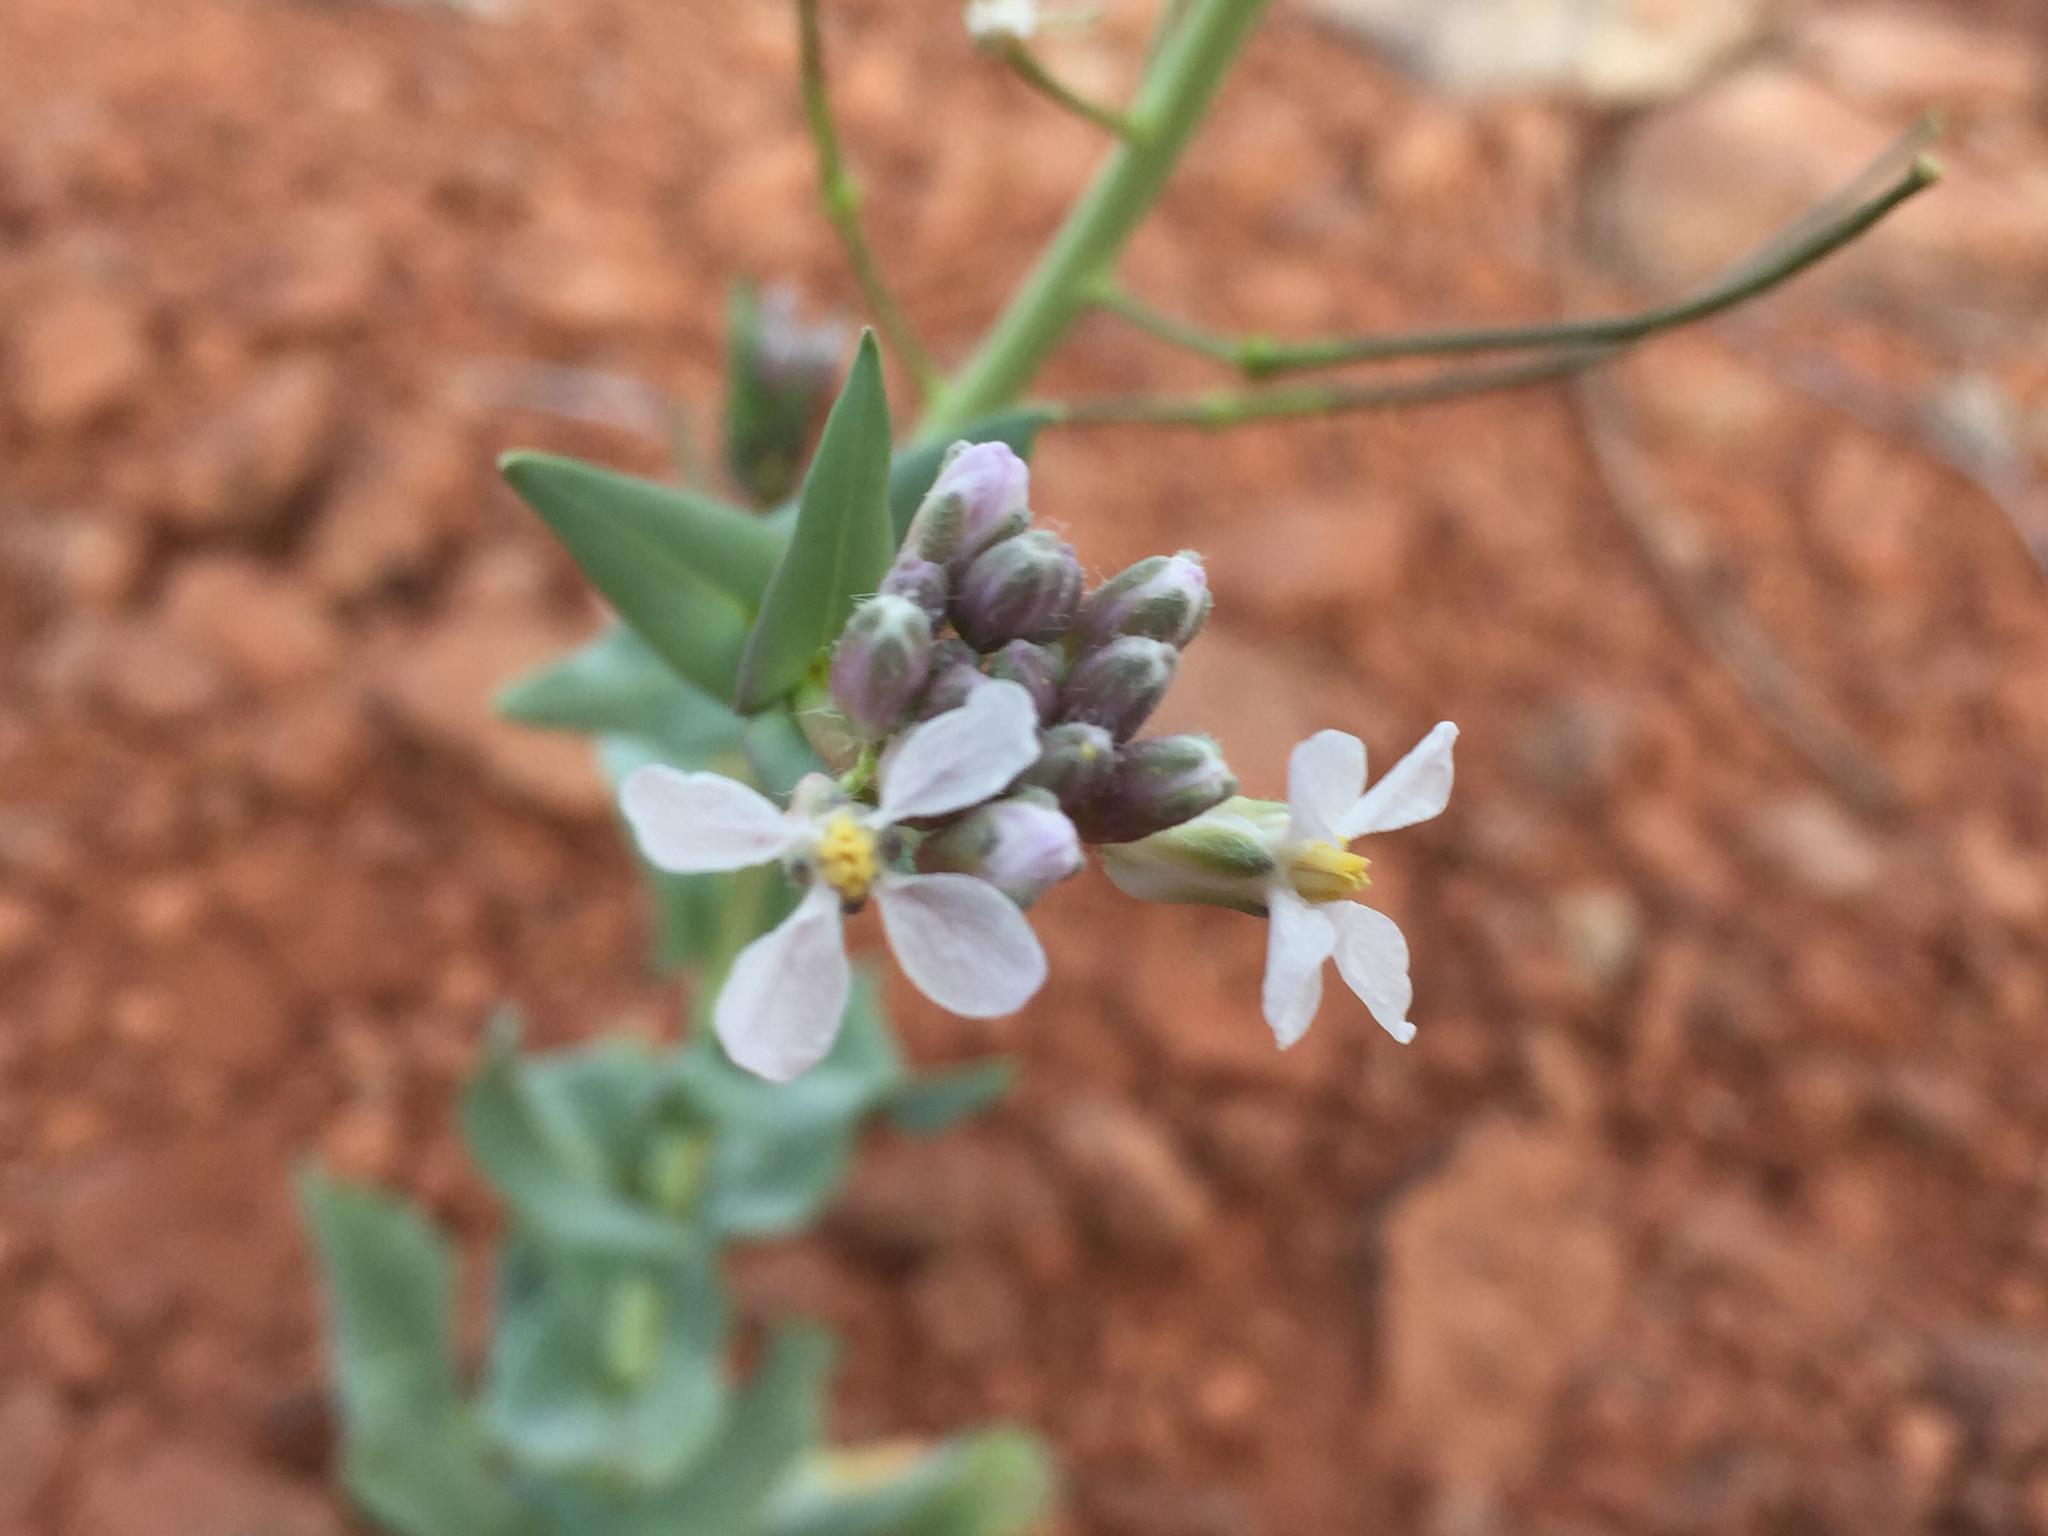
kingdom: Plantae
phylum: Tracheophyta
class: Magnoliopsida
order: Brassicales
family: Brassicaceae
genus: Thelypodiopsis
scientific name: Thelypodiopsis elegans
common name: Elegant thelypody
